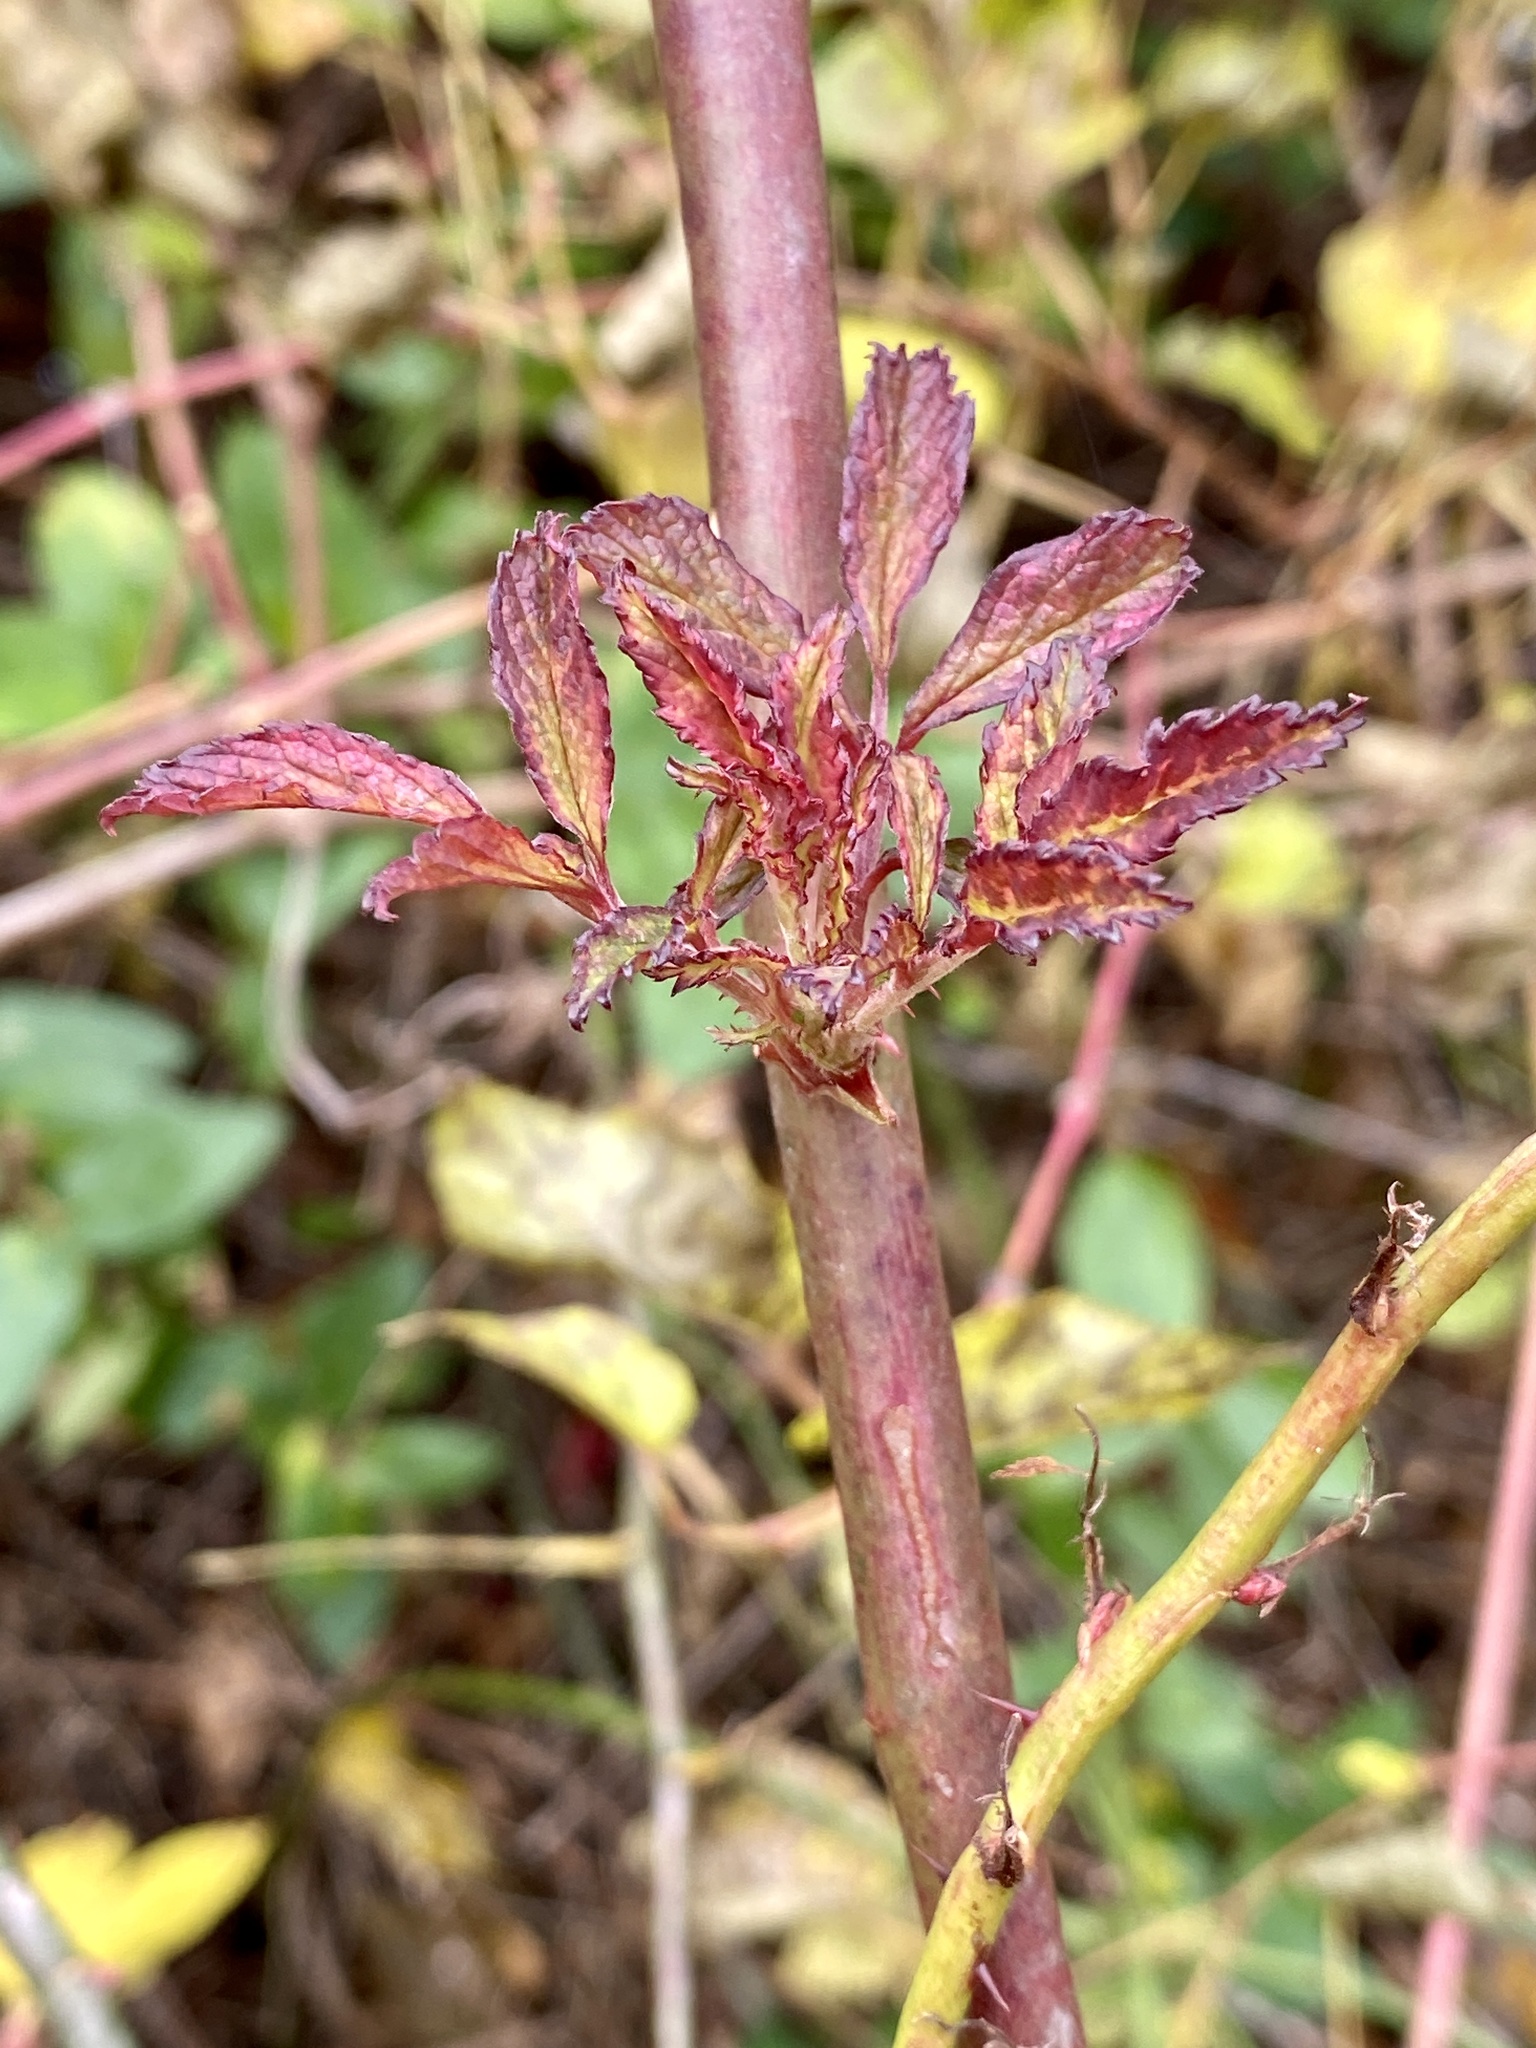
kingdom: Viruses
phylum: Negarnaviricota
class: Ellioviricetes
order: Bunyavirales
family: Fimoviridae
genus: Emaravirus
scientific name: Emaravirus rosae
